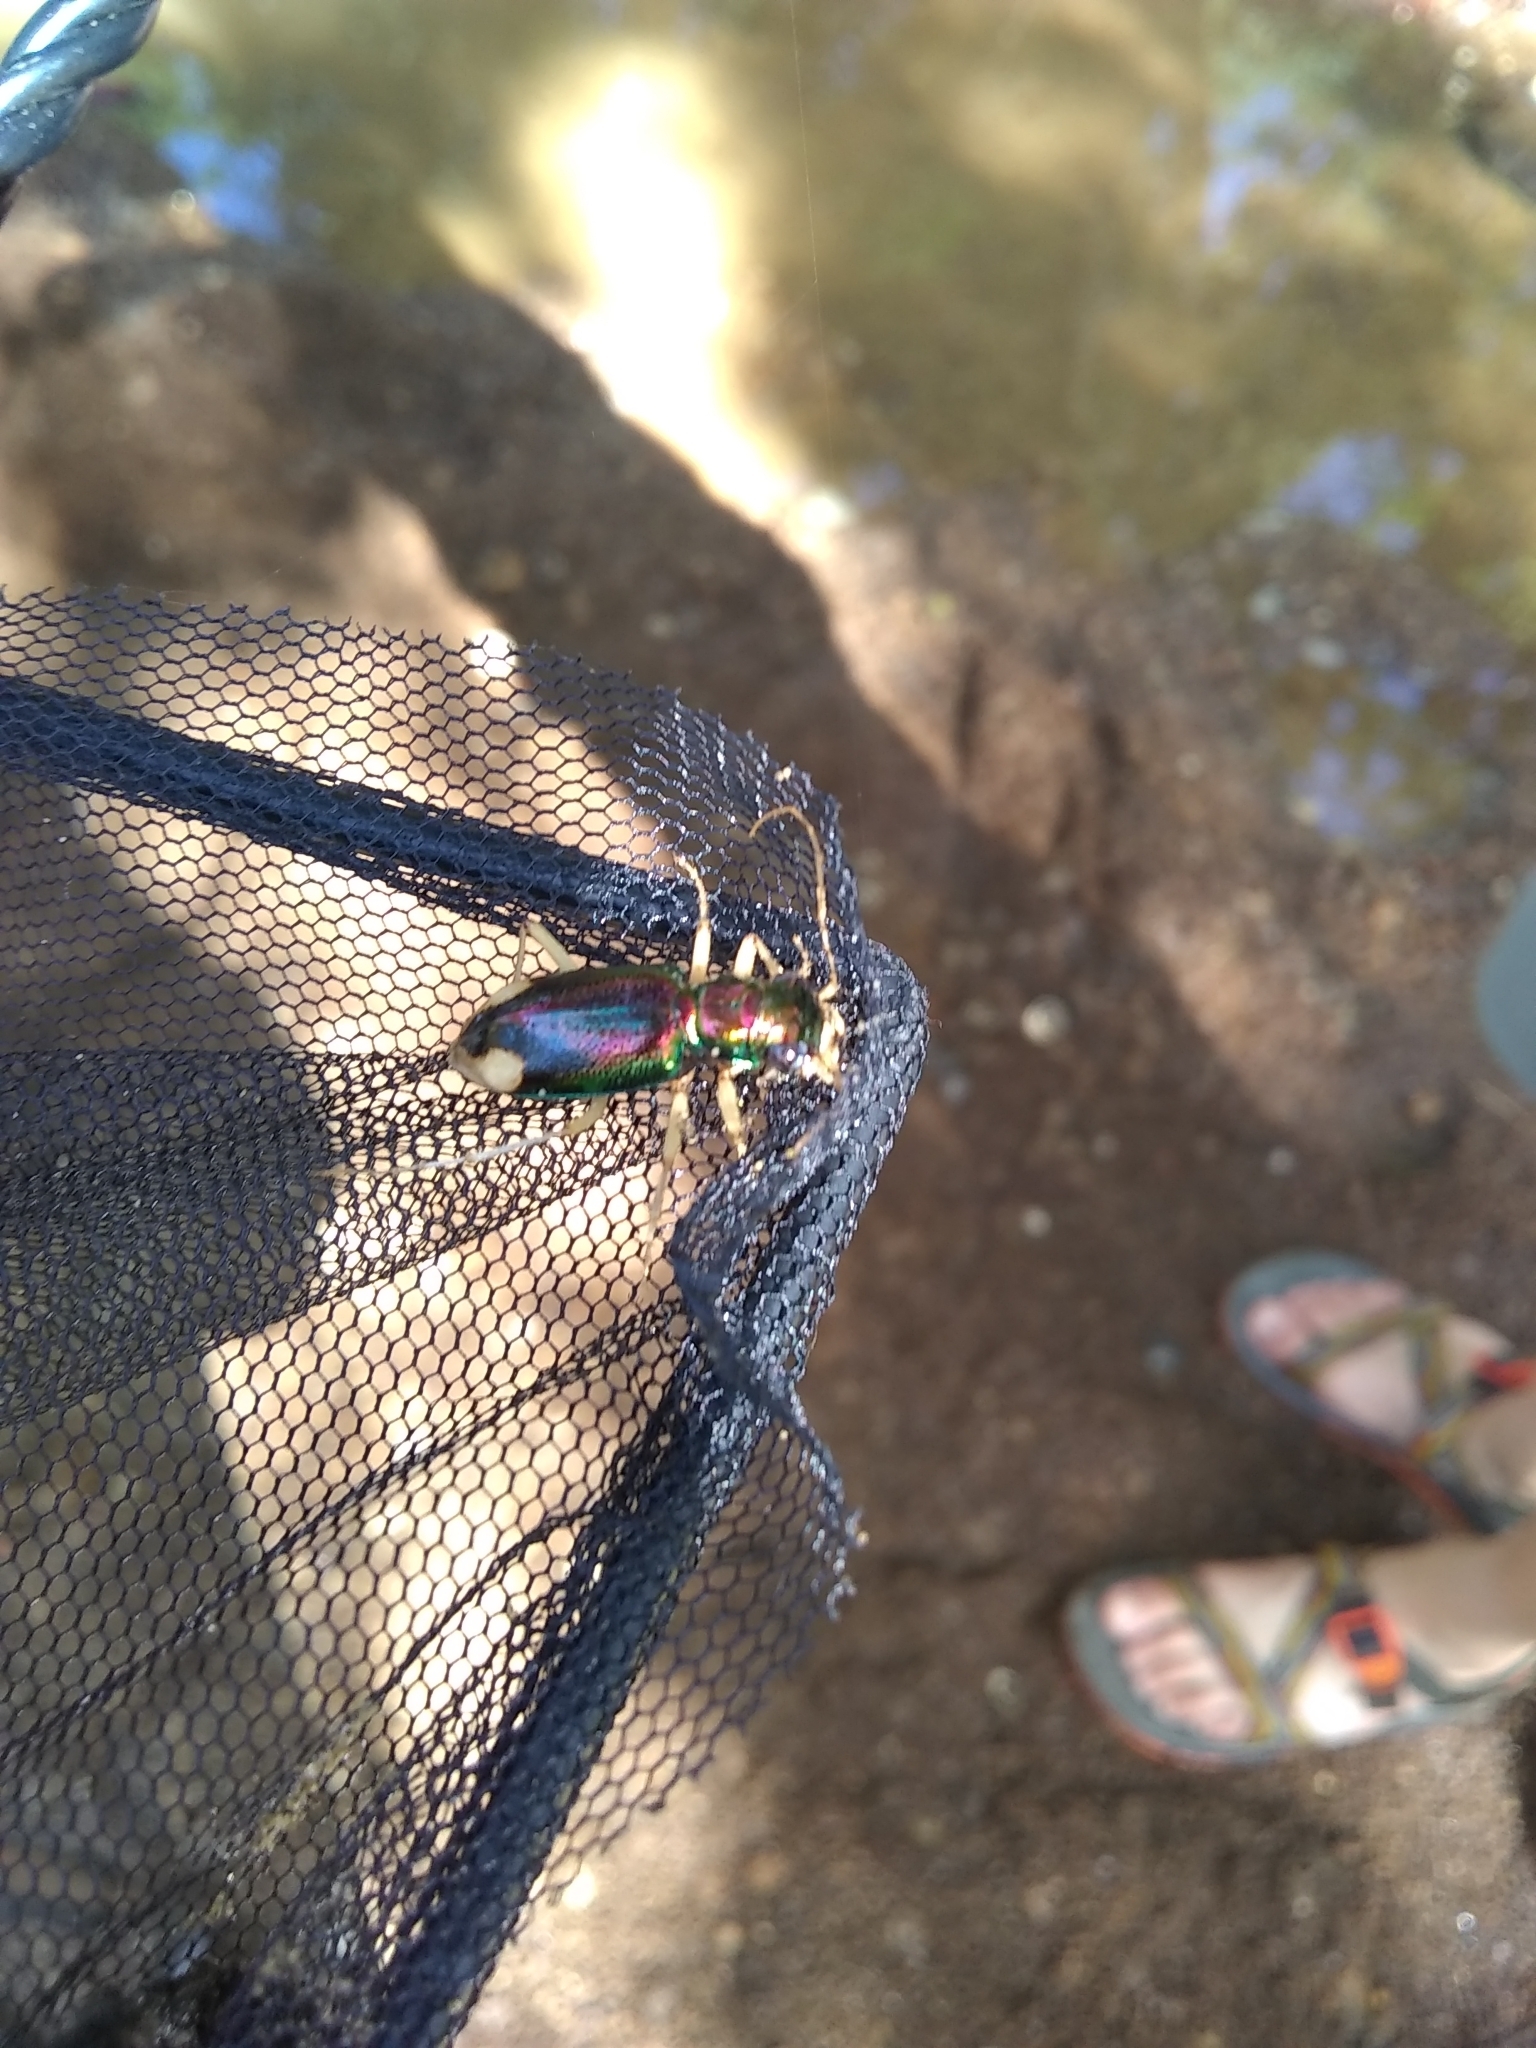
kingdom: Animalia
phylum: Arthropoda
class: Insecta
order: Coleoptera
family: Carabidae
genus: Tetracha
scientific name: Tetracha carolina
